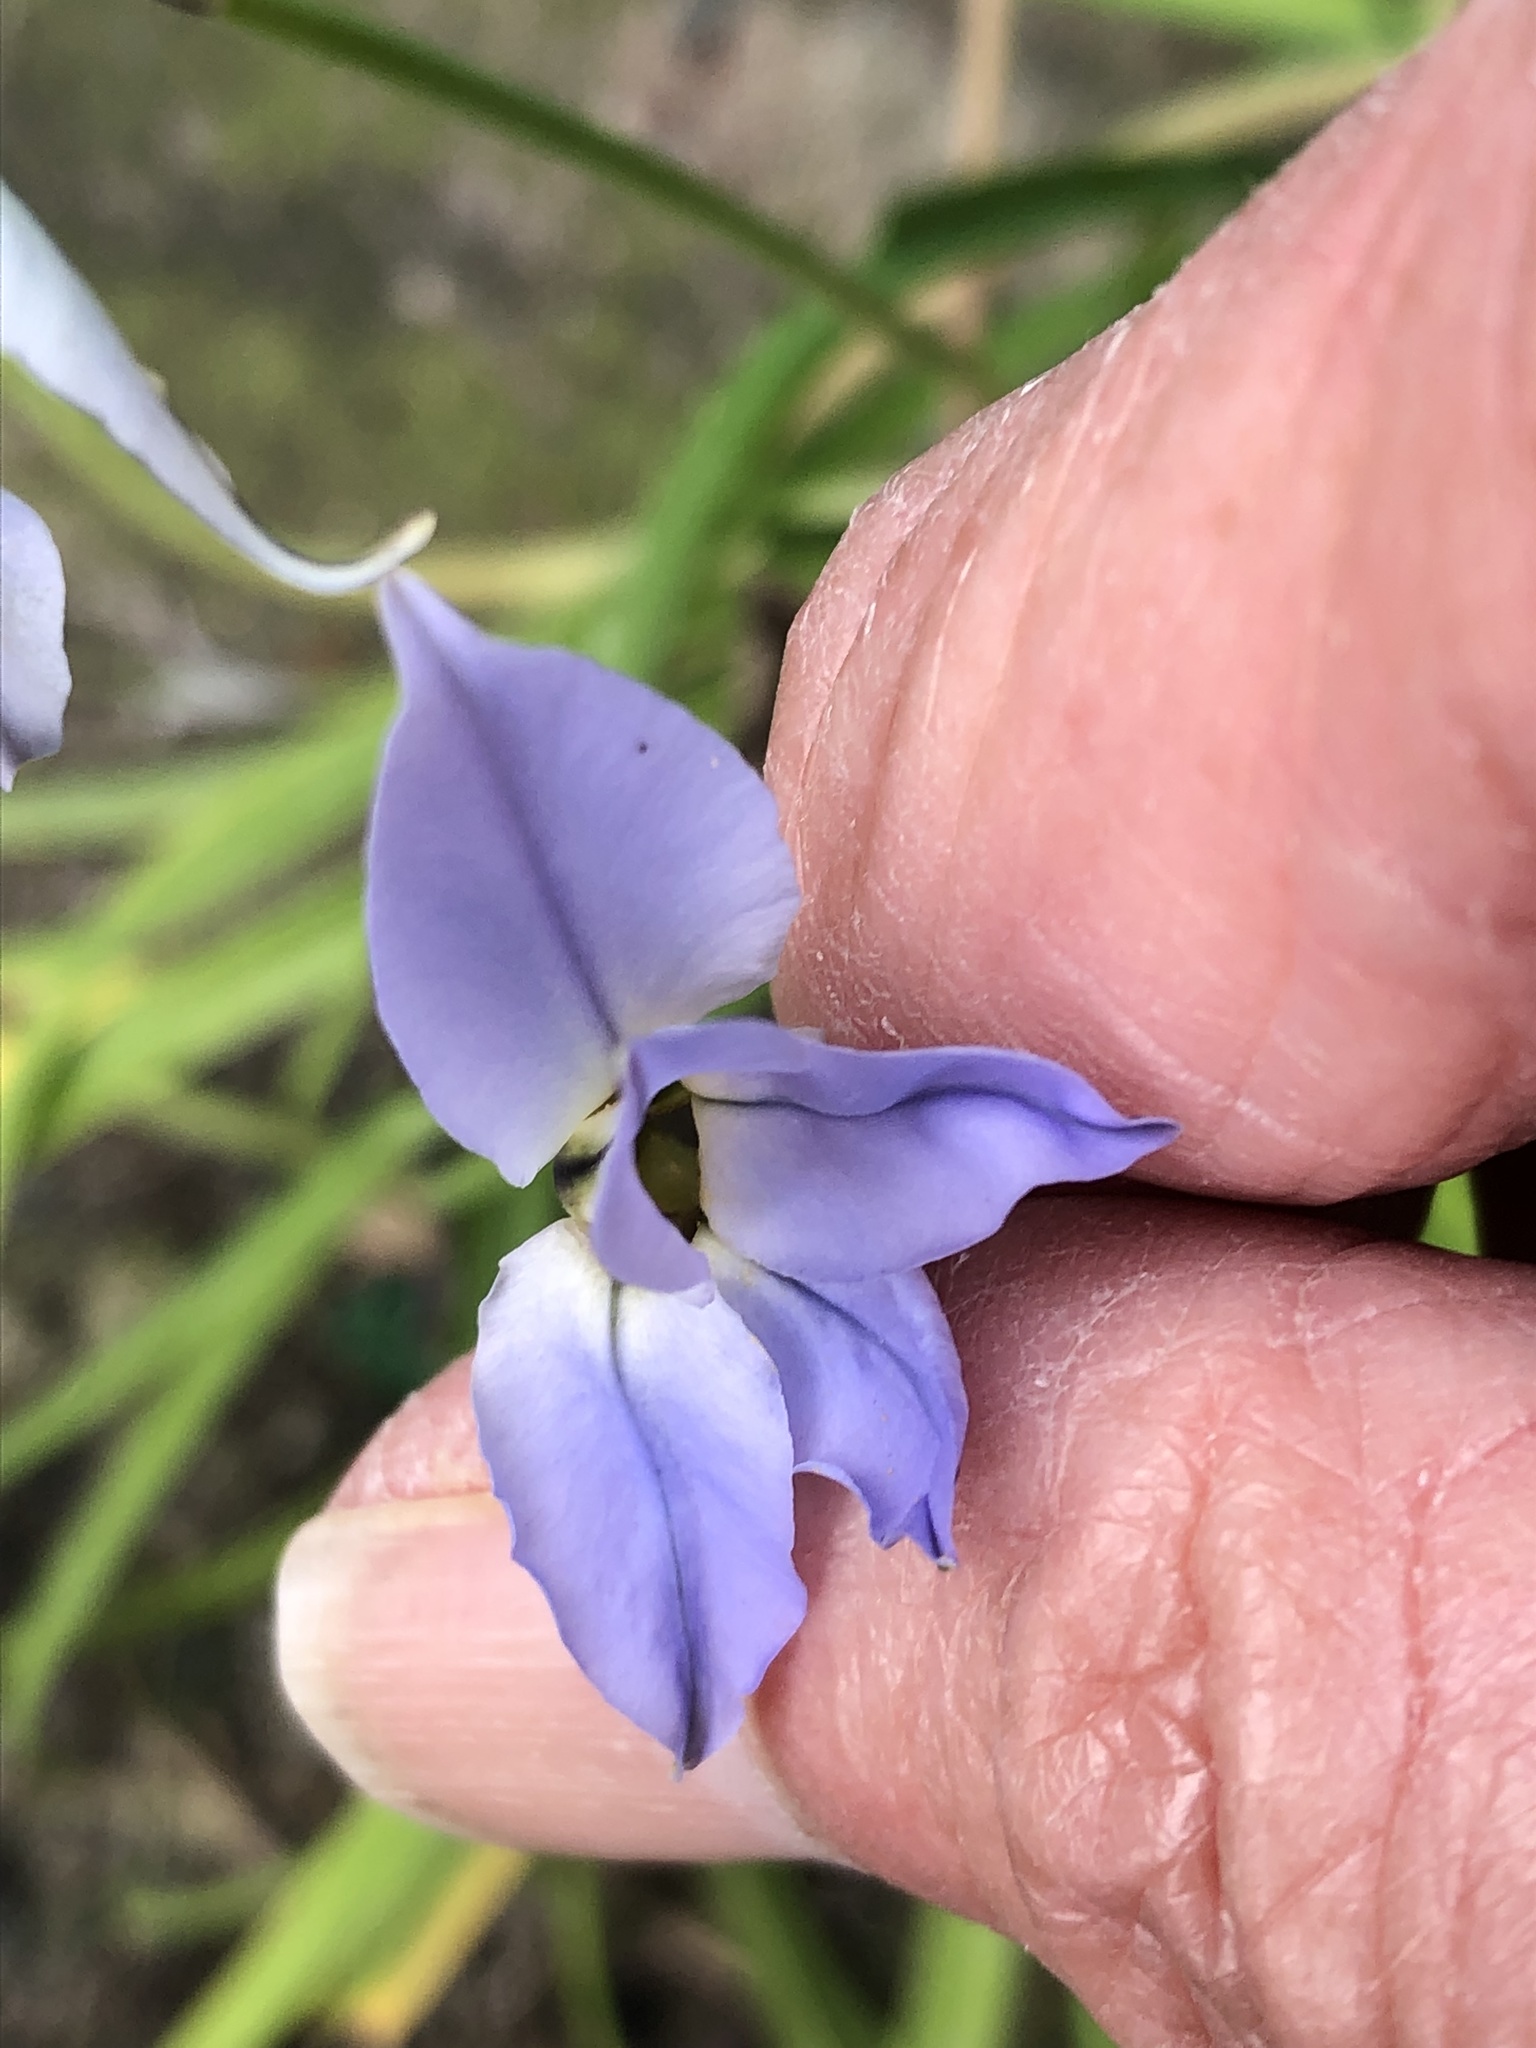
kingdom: Plantae
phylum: Tracheophyta
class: Liliopsida
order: Asparagales
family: Amaryllidaceae
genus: Ipheion
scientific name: Ipheion uniflorum
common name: Spring starflower
